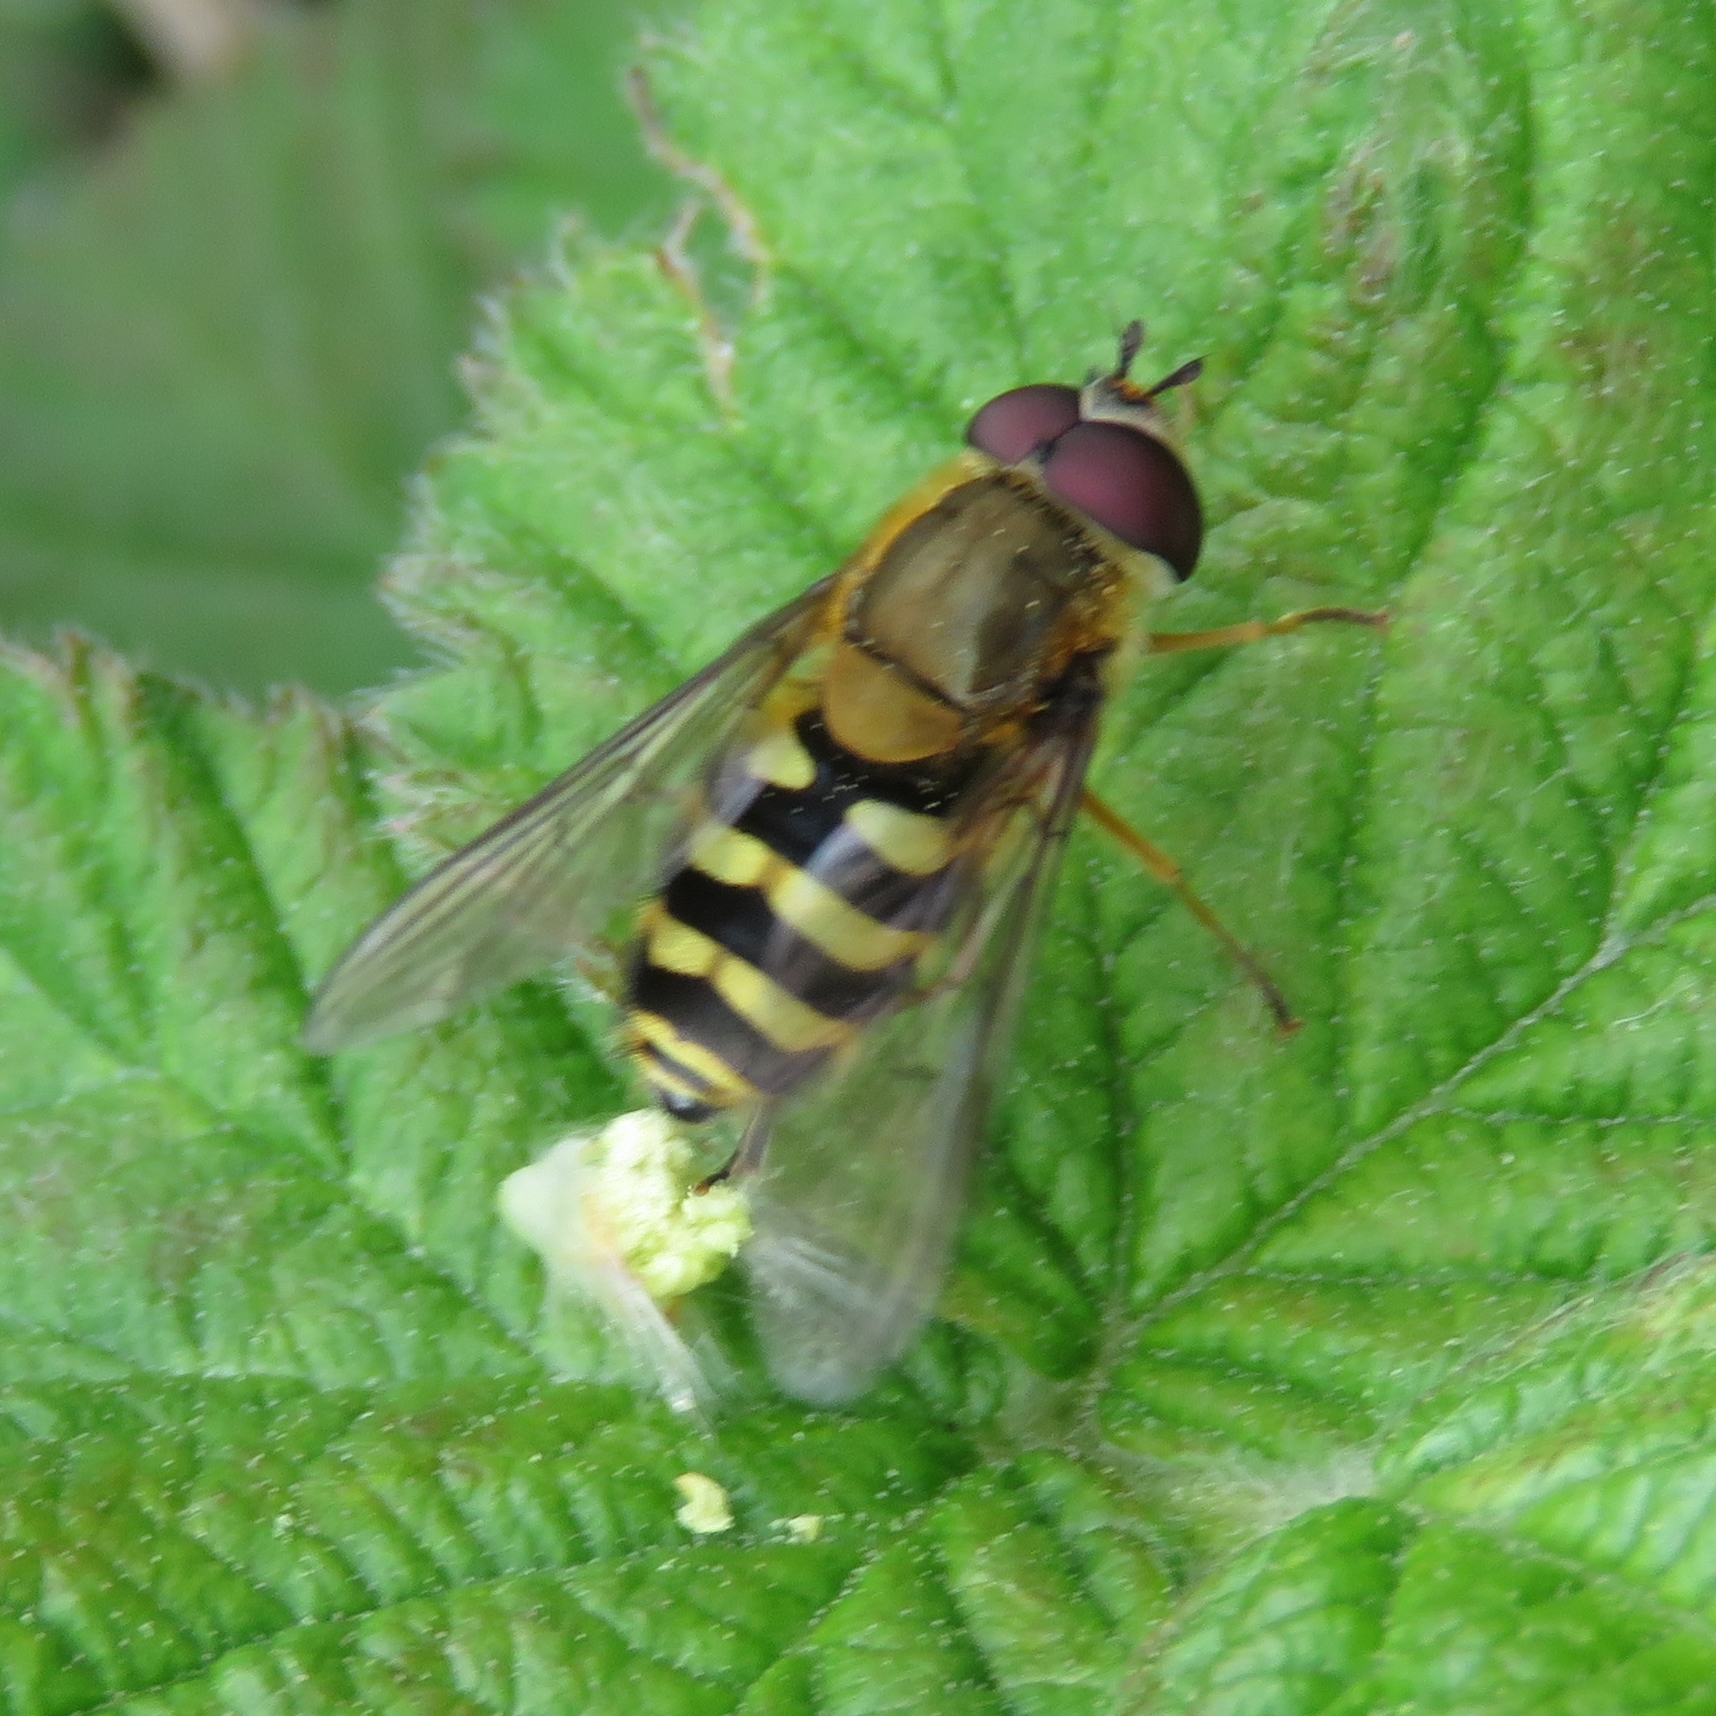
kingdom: Animalia
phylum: Arthropoda
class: Insecta
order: Diptera
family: Syrphidae
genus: Syrphus
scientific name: Syrphus
